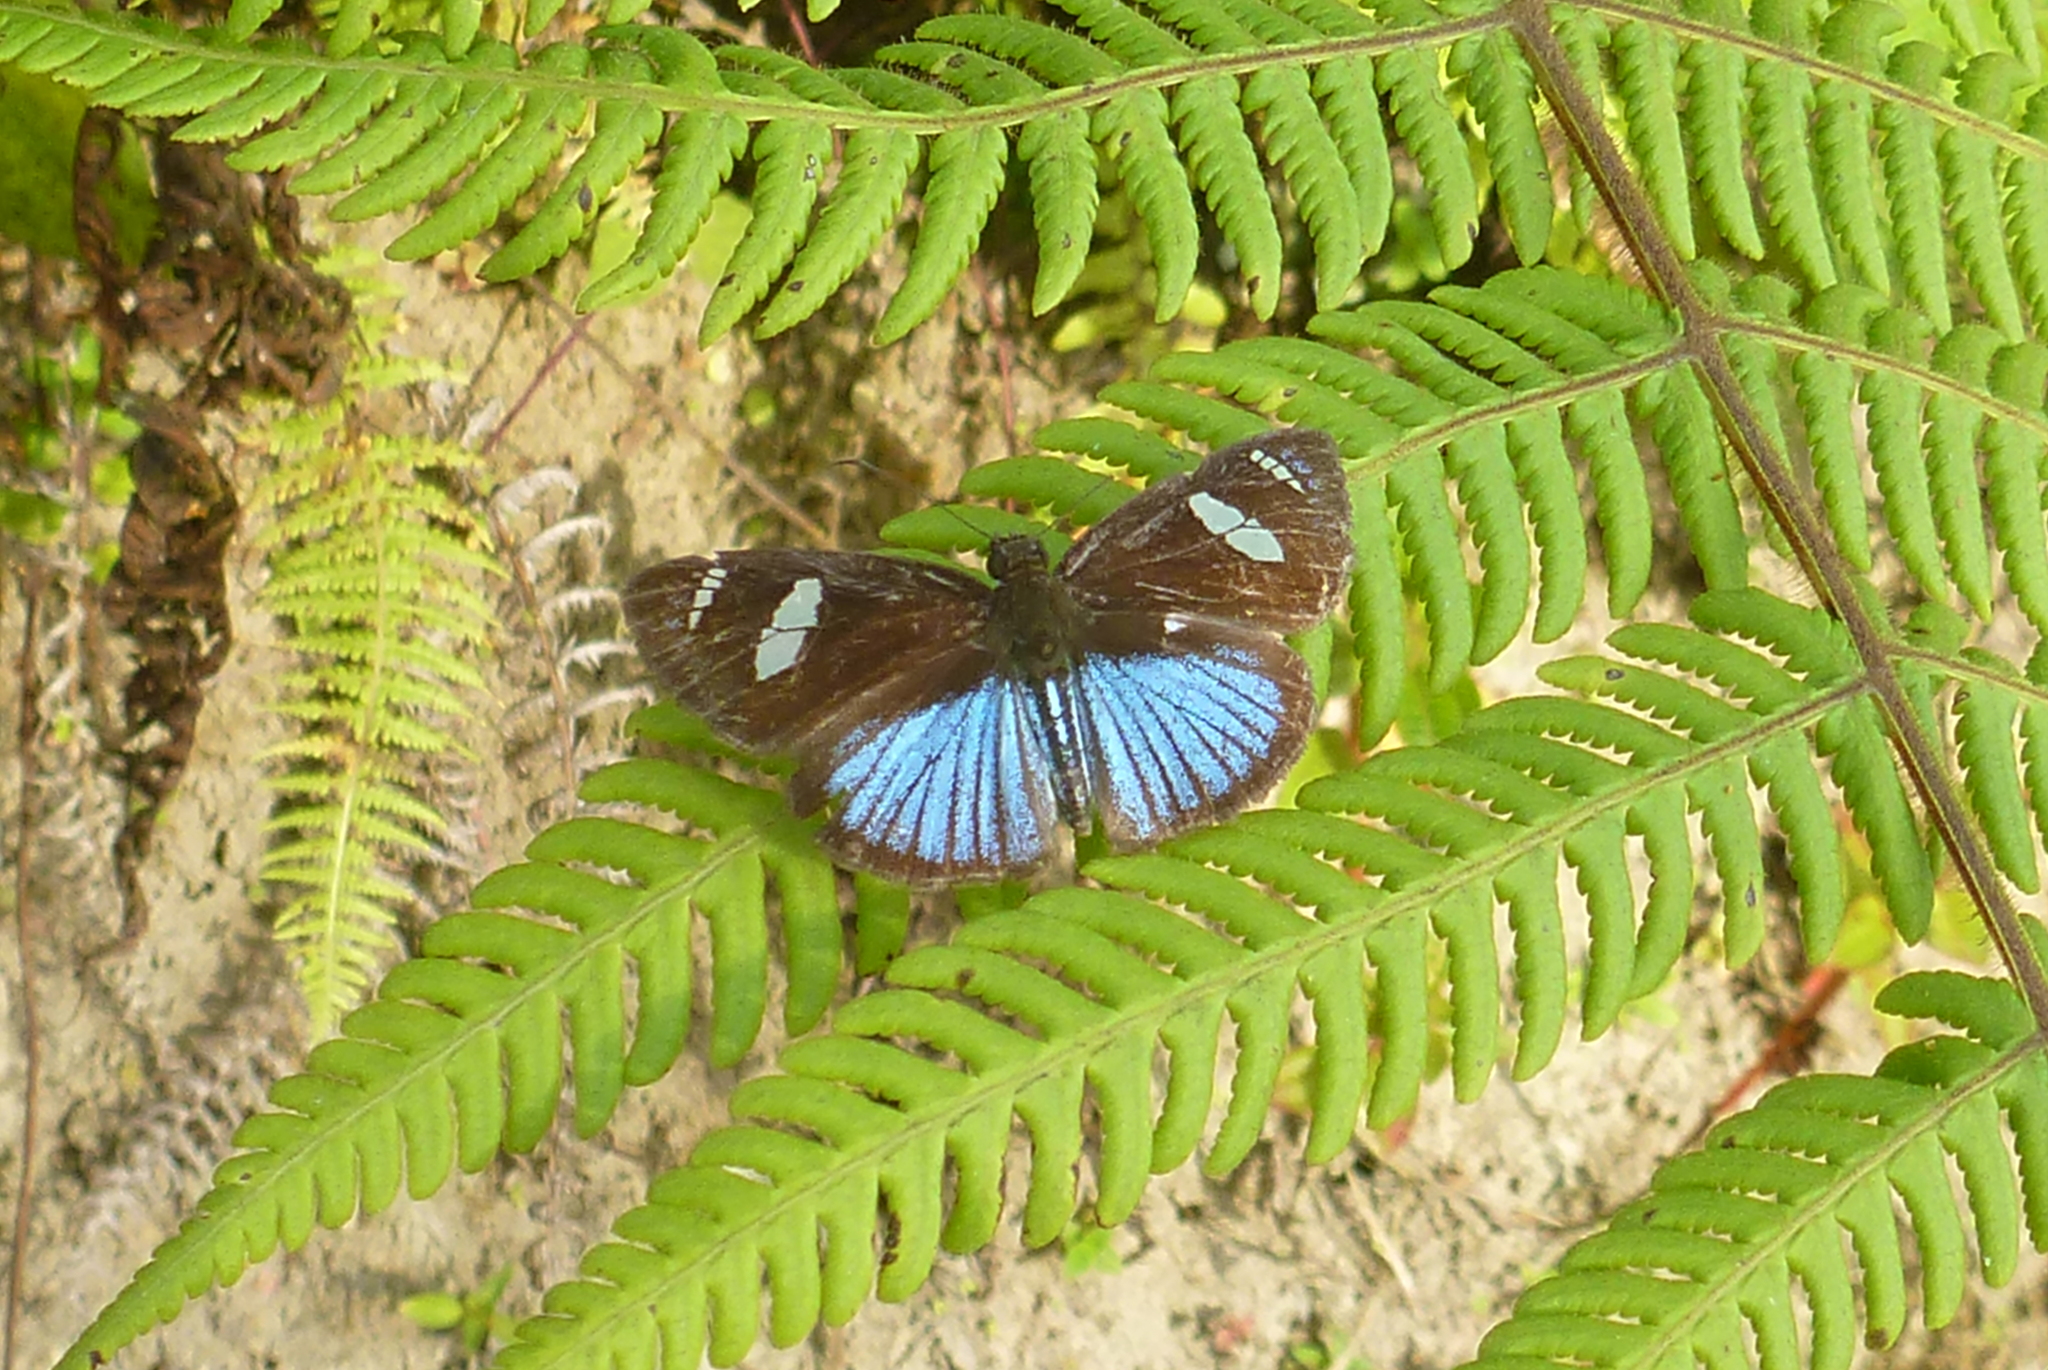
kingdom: Animalia
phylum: Arthropoda
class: Insecta
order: Lepidoptera
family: Hesperiidae
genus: Pythonides
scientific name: Pythonides jovianus
